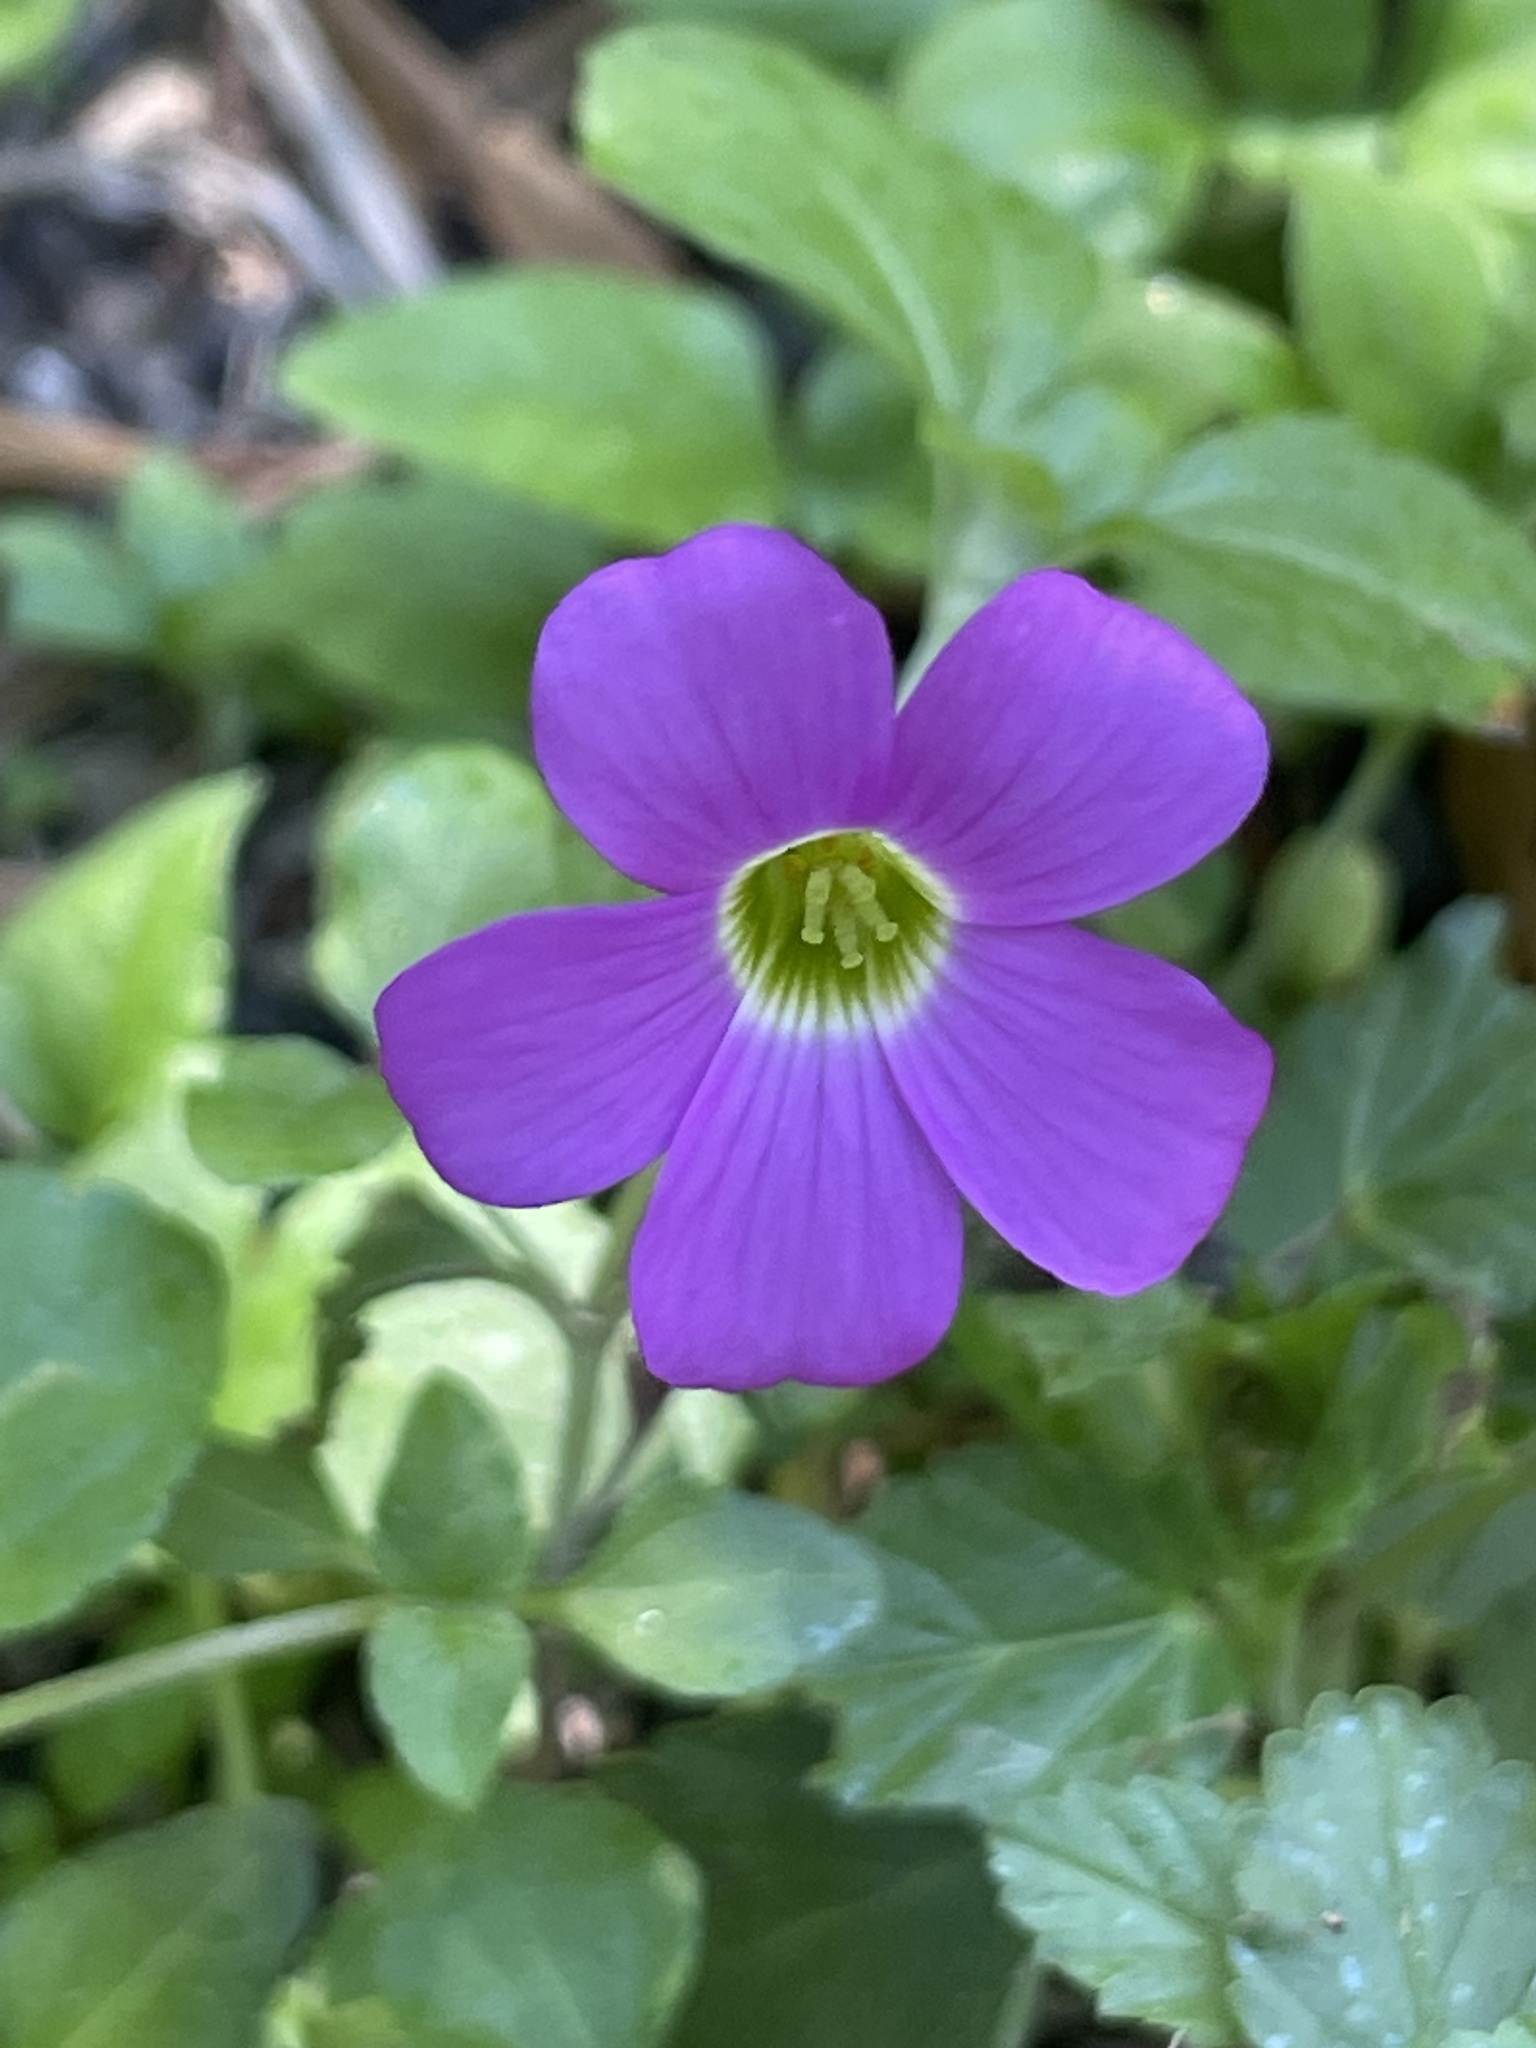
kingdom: Plantae
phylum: Tracheophyta
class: Magnoliopsida
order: Oxalidales
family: Oxalidaceae
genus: Oxalis
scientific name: Oxalis drummondii
